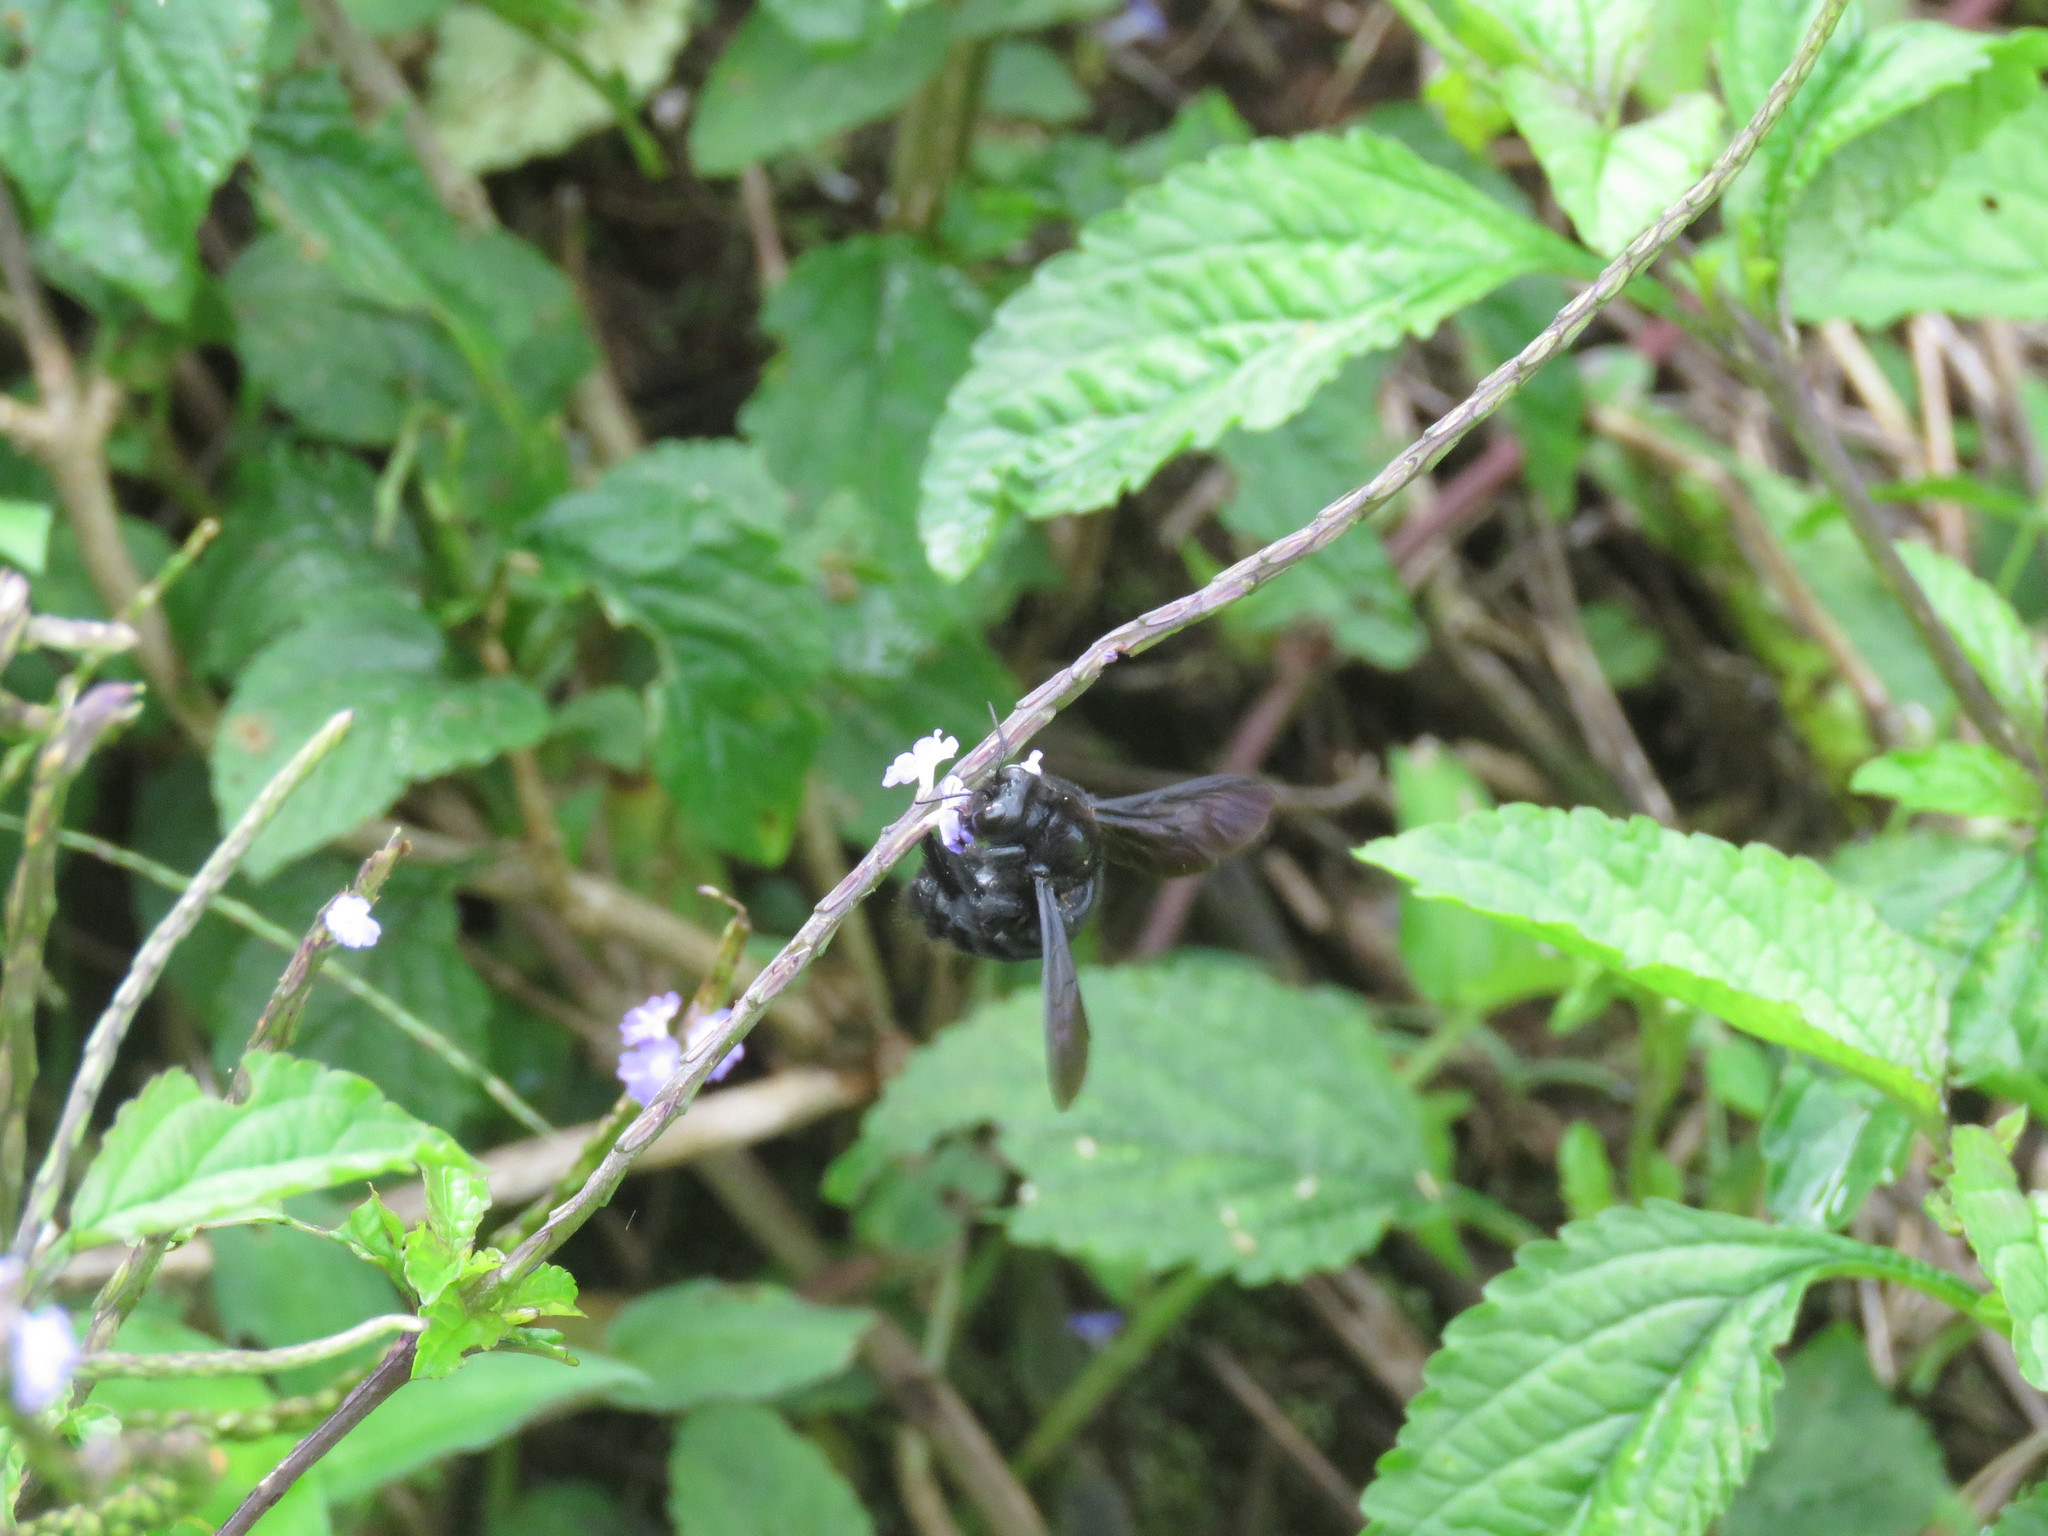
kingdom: Plantae
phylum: Tracheophyta
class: Magnoliopsida
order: Lamiales
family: Verbenaceae
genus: Stachytarpheta
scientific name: Stachytarpheta cayennensis
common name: Cayenne porterweed
